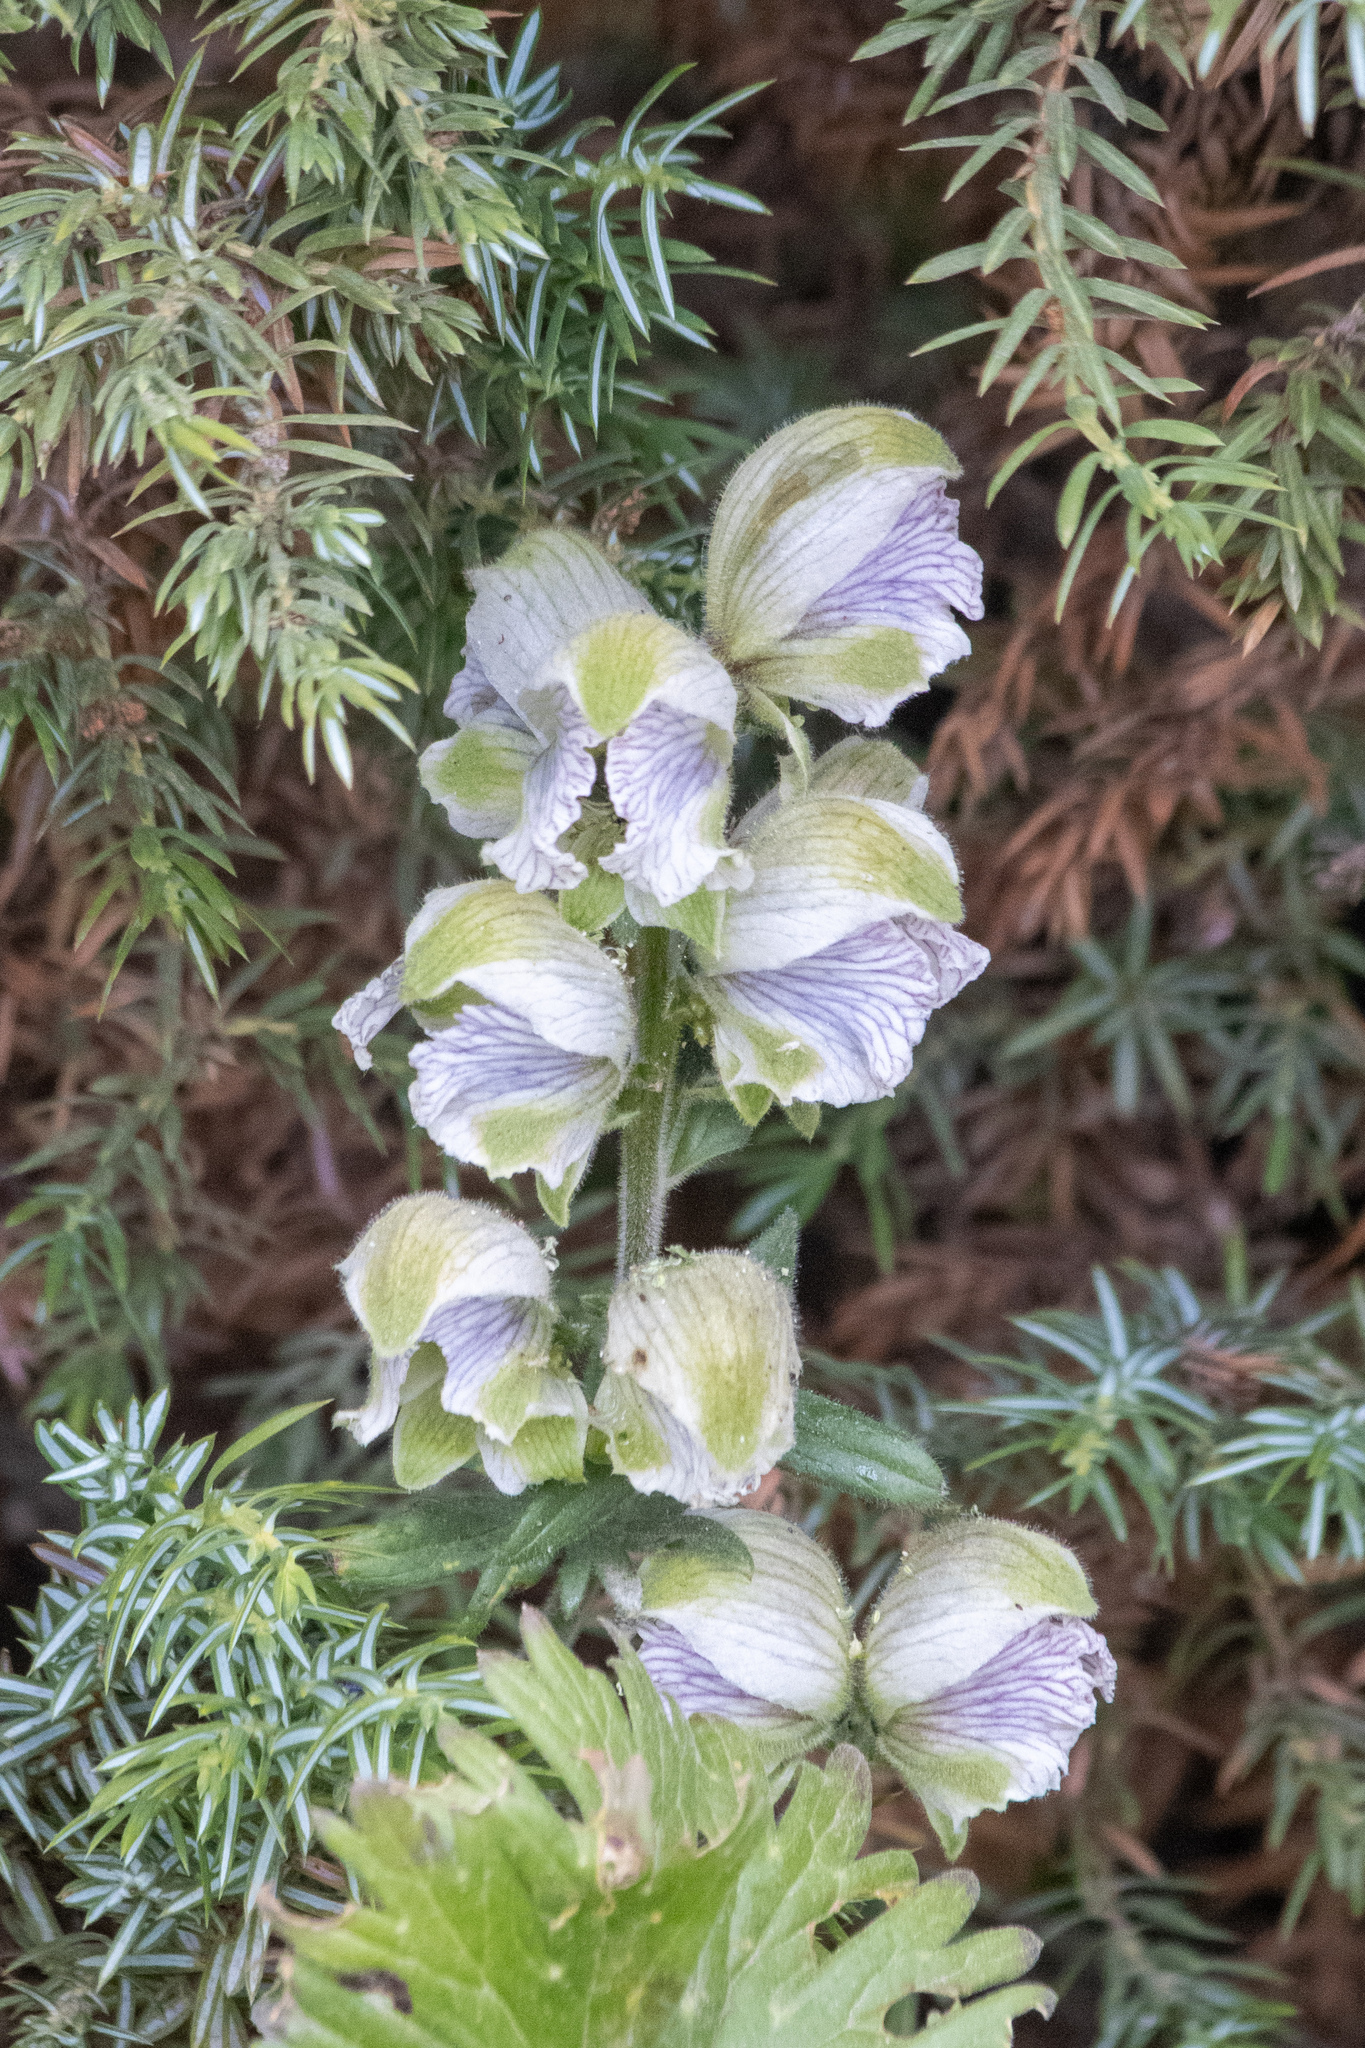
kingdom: Plantae
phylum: Tracheophyta
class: Magnoliopsida
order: Ranunculales
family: Ranunculaceae
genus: Aconitum
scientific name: Aconitum rotundifolium
